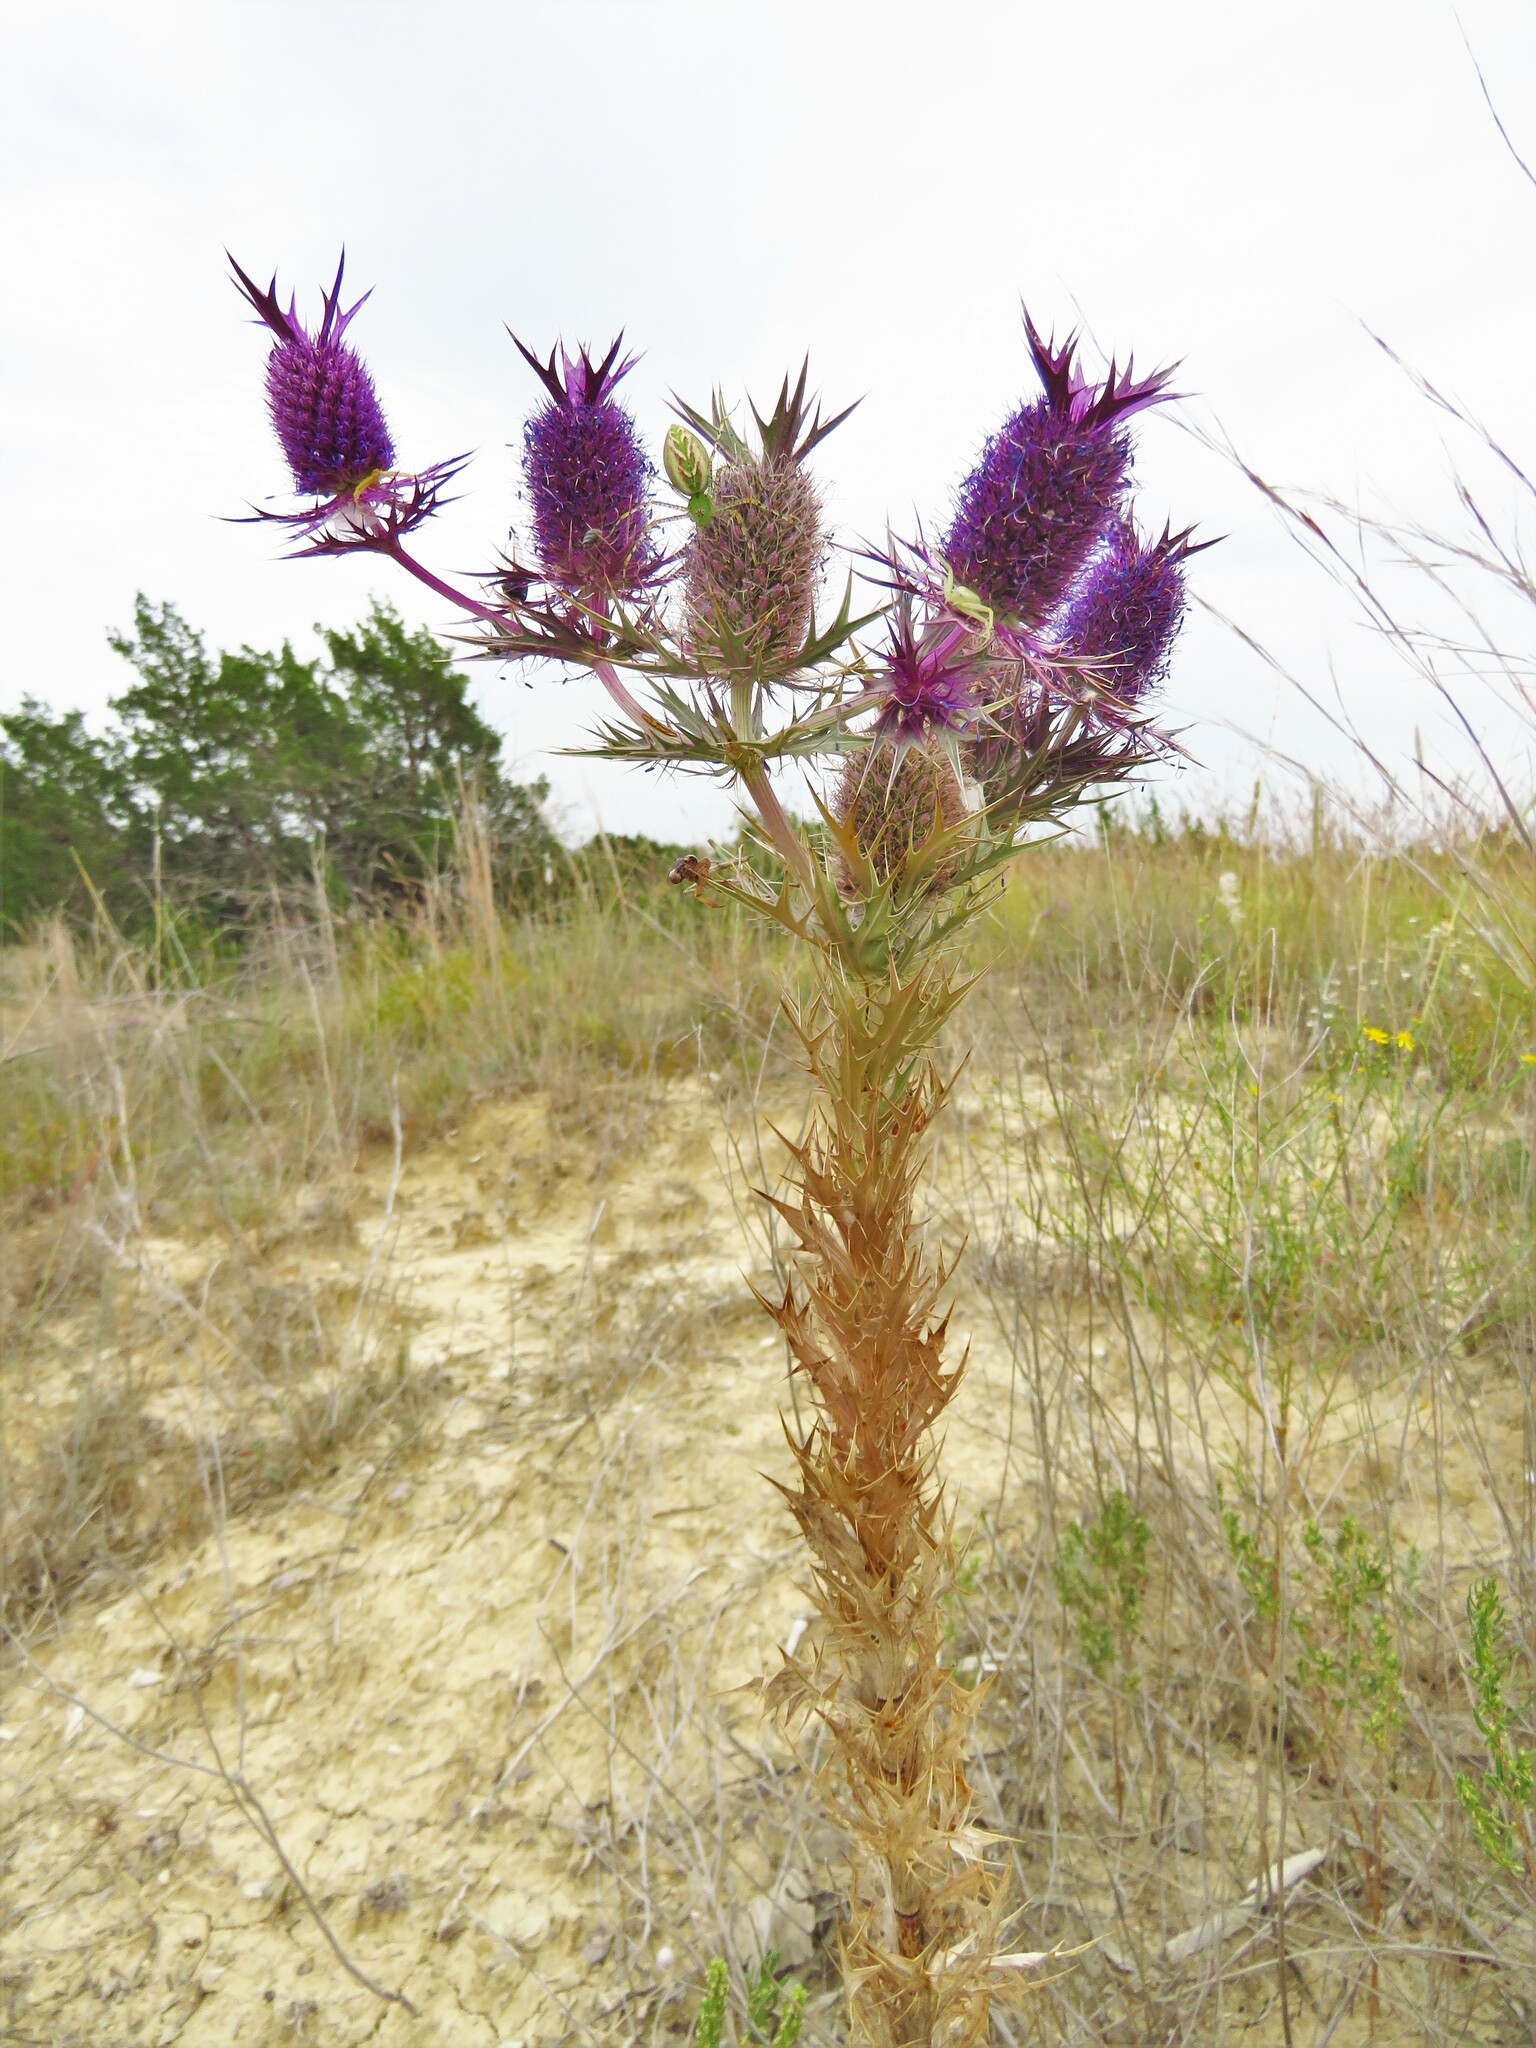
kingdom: Plantae
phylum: Tracheophyta
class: Magnoliopsida
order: Apiales
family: Apiaceae
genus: Eryngium
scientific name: Eryngium leavenworthii
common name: Leavenworth's eryngo
